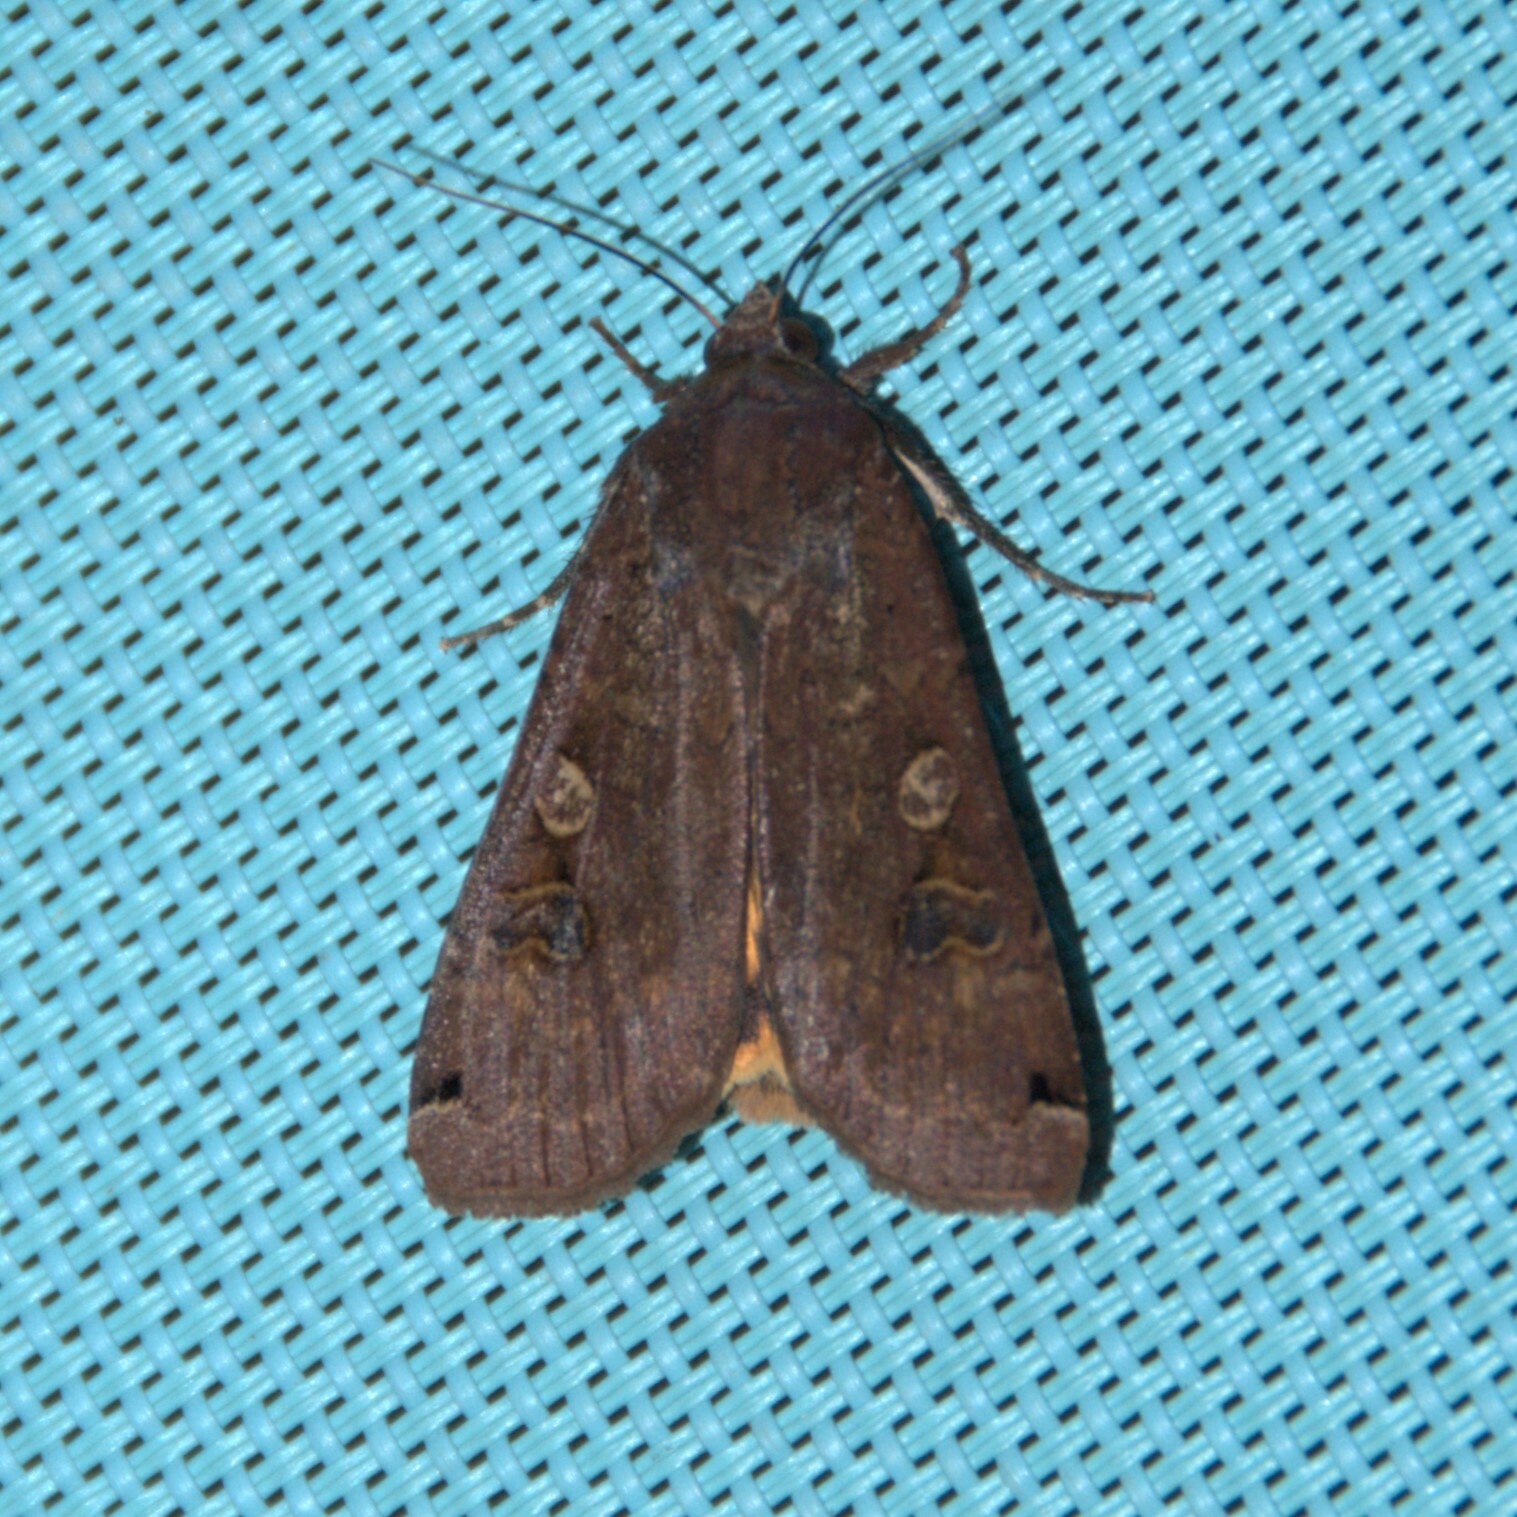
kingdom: Animalia
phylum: Arthropoda
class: Insecta
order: Lepidoptera
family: Noctuidae
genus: Noctua
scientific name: Noctua pronuba
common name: Large yellow underwing
